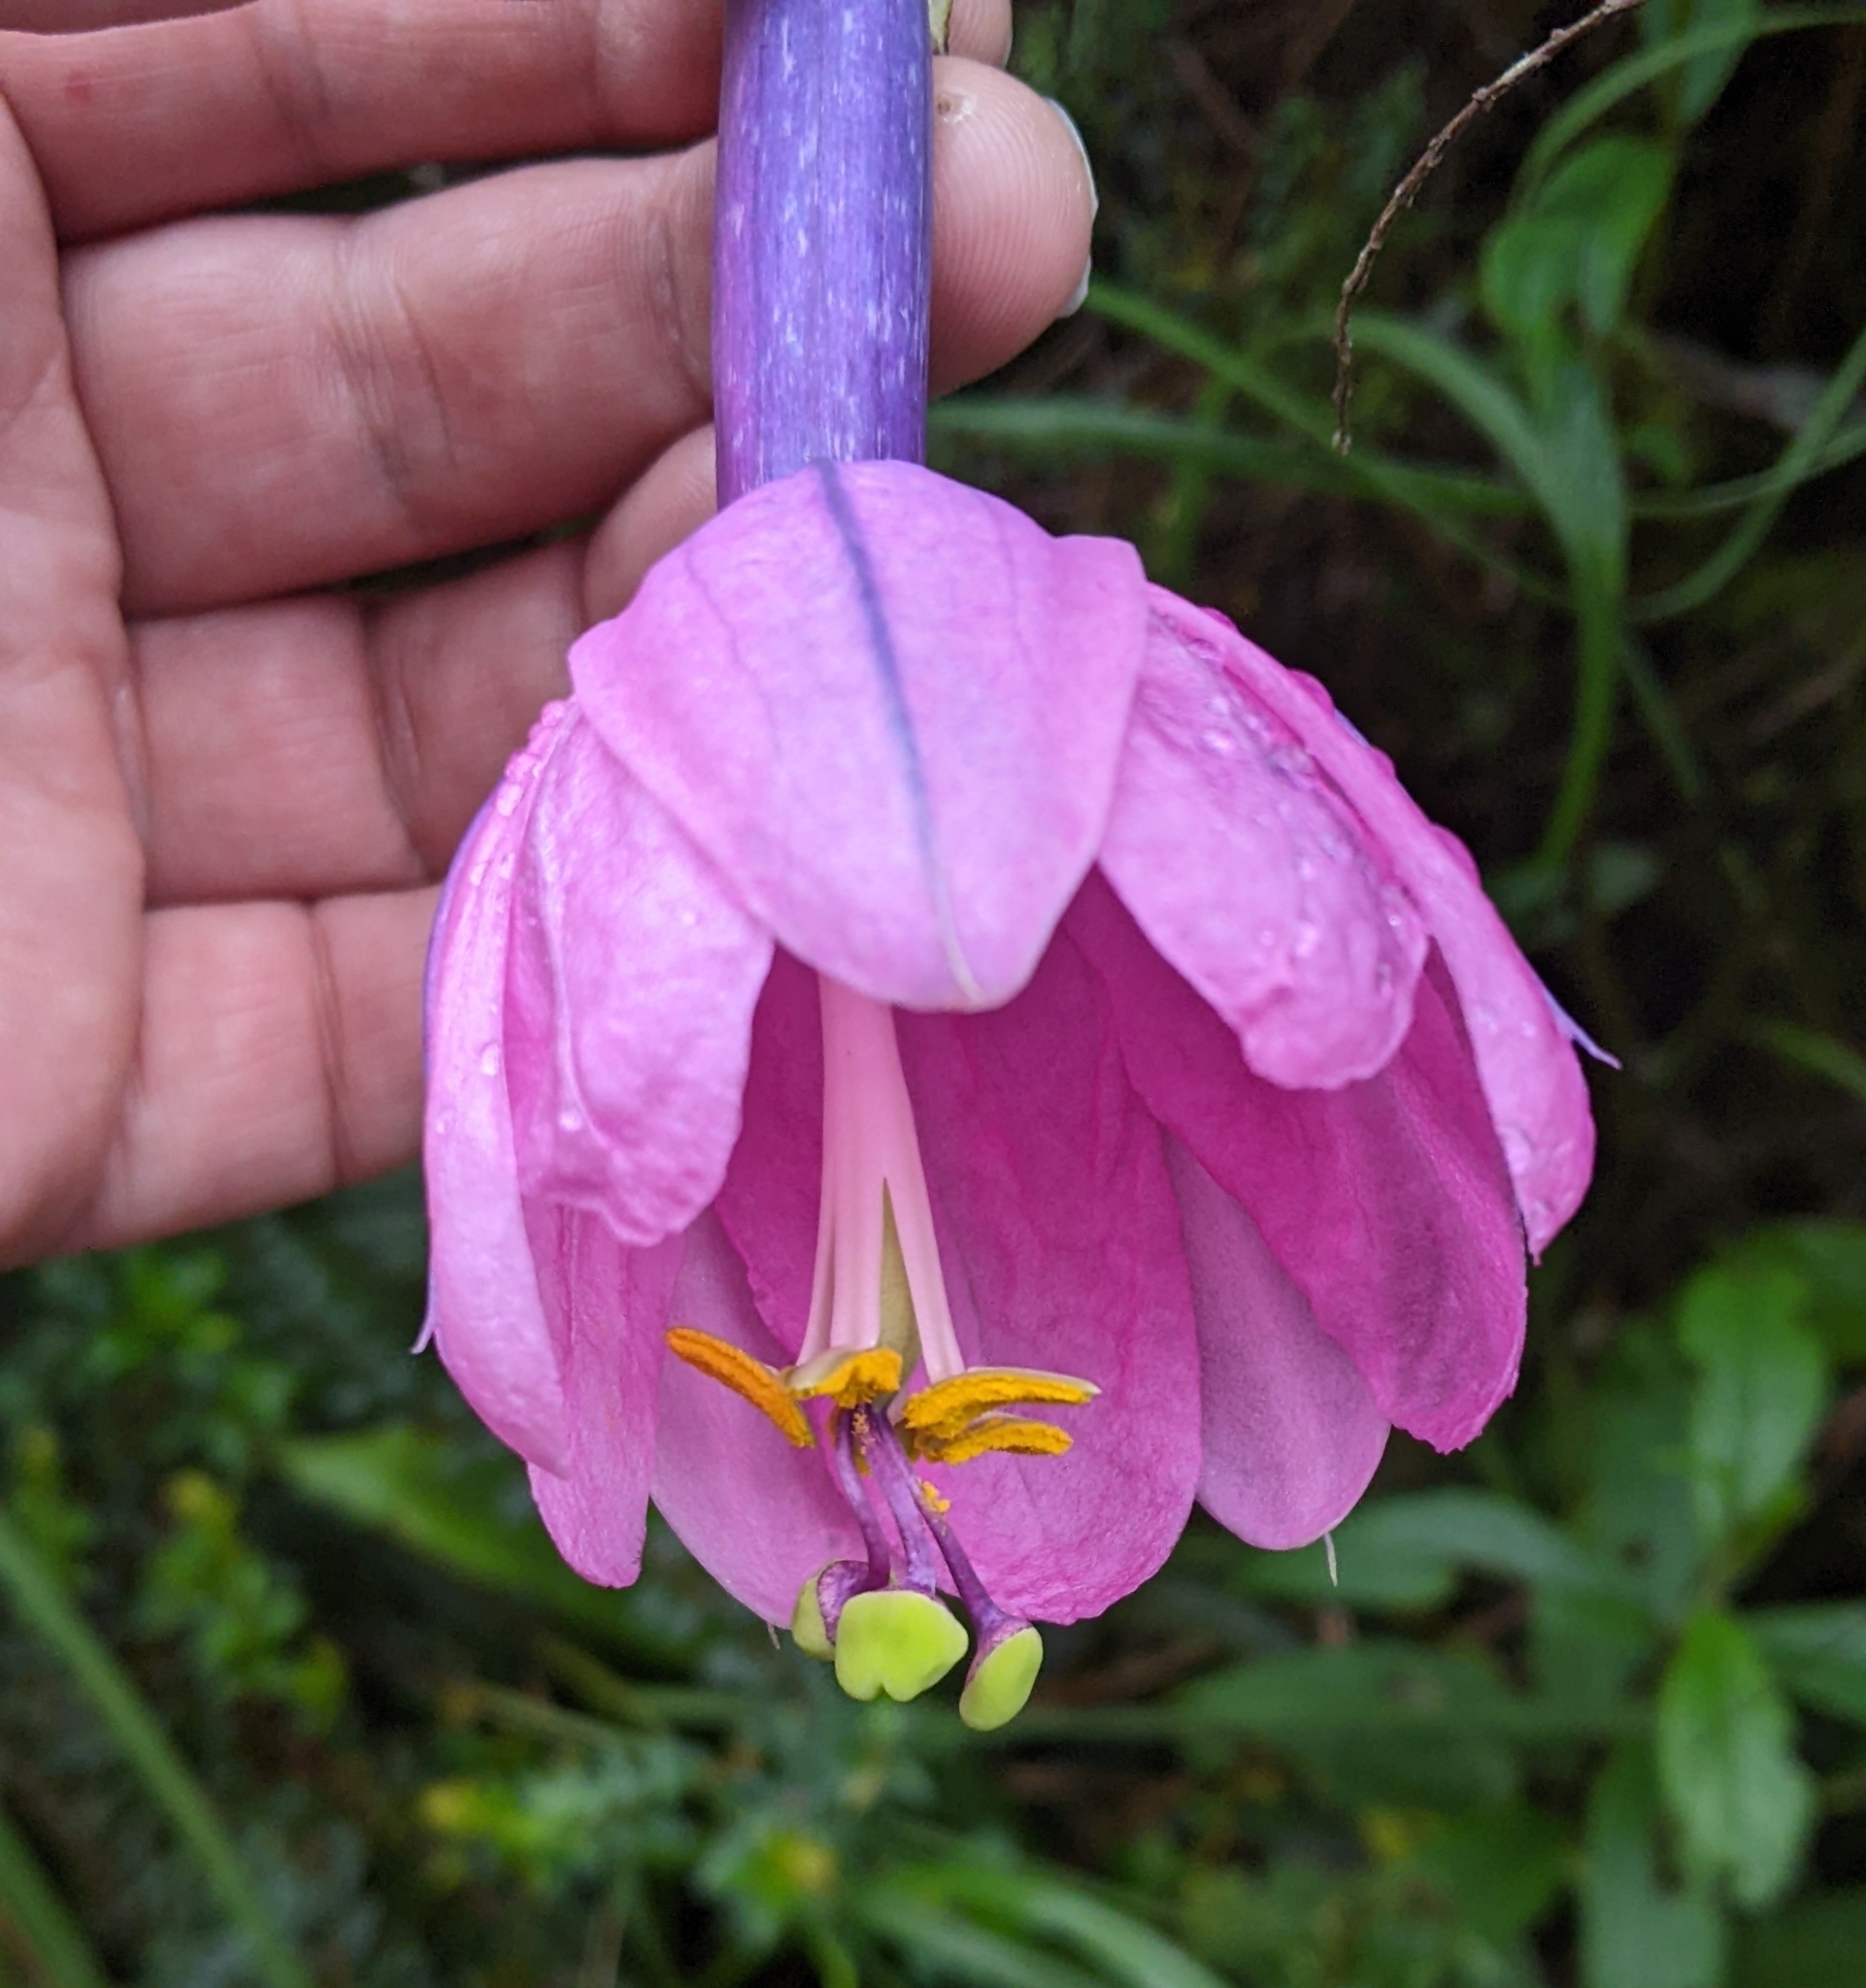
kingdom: Plantae
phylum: Tracheophyta
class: Magnoliopsida
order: Malpighiales
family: Passifloraceae
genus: Passiflora
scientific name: Passiflora cumbalensis
